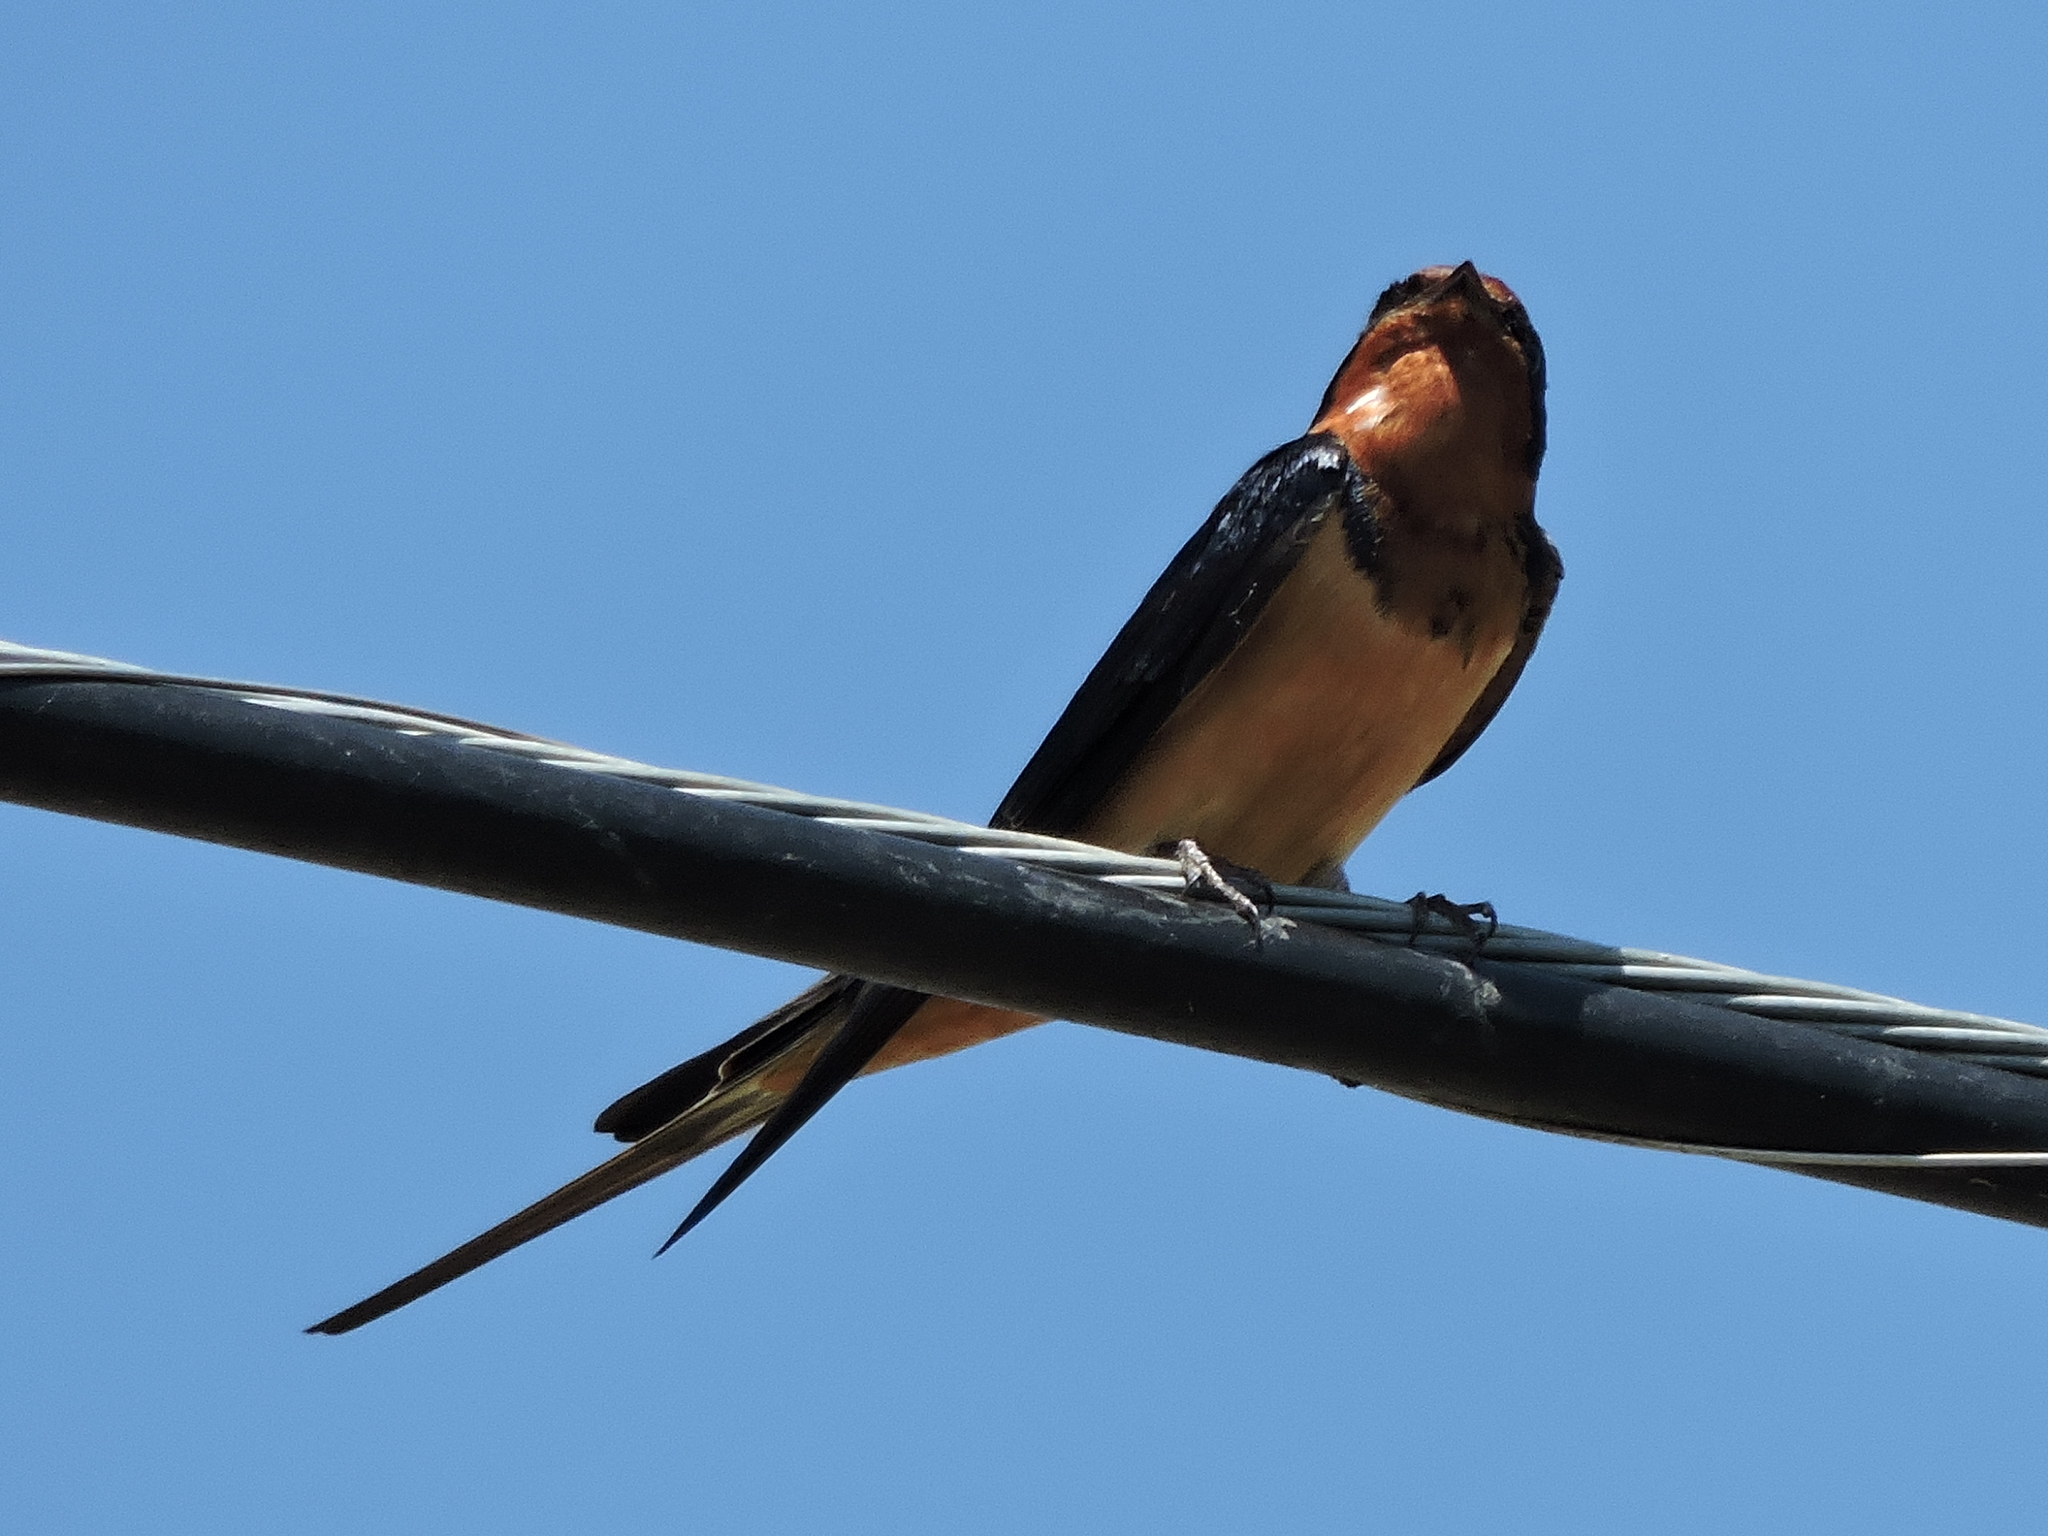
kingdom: Animalia
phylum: Chordata
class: Aves
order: Passeriformes
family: Hirundinidae
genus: Hirundo
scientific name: Hirundo rustica
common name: Barn swallow
